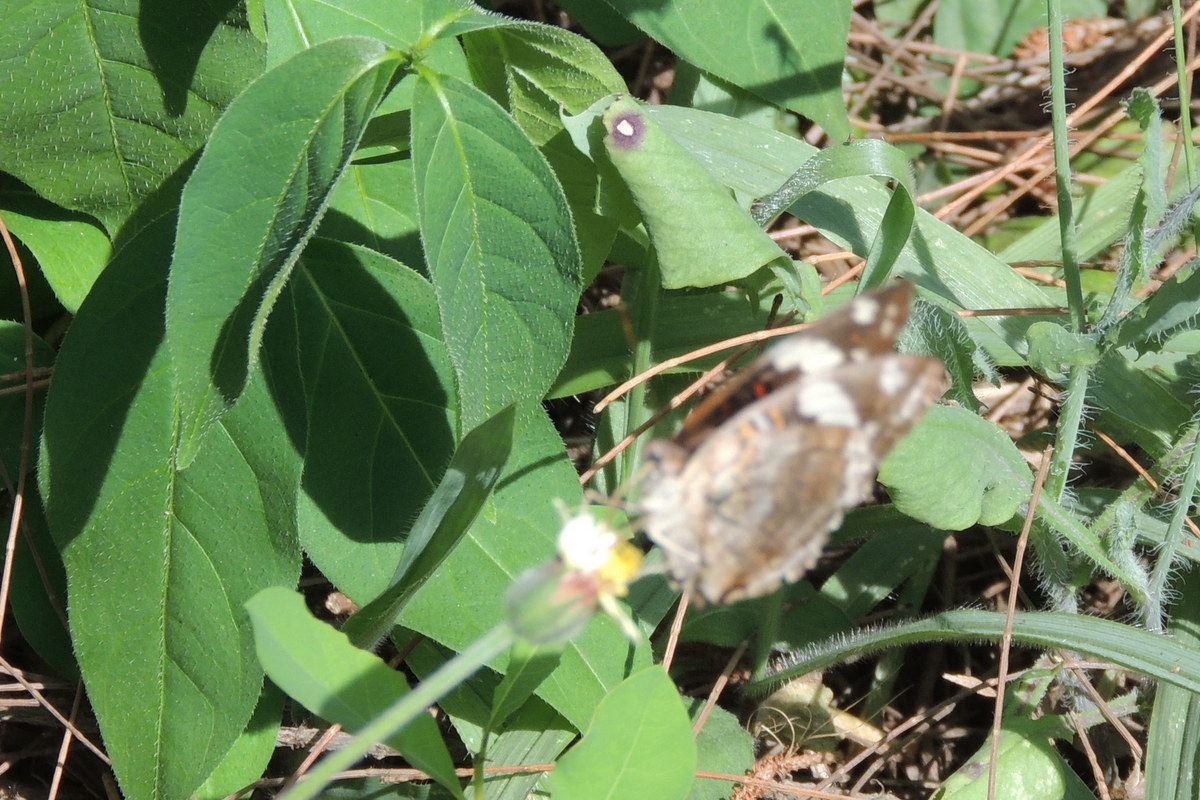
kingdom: Animalia
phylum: Arthropoda
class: Insecta
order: Lepidoptera
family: Nymphalidae
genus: Junonia
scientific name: Junonia oenone
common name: Dark blue pansy
